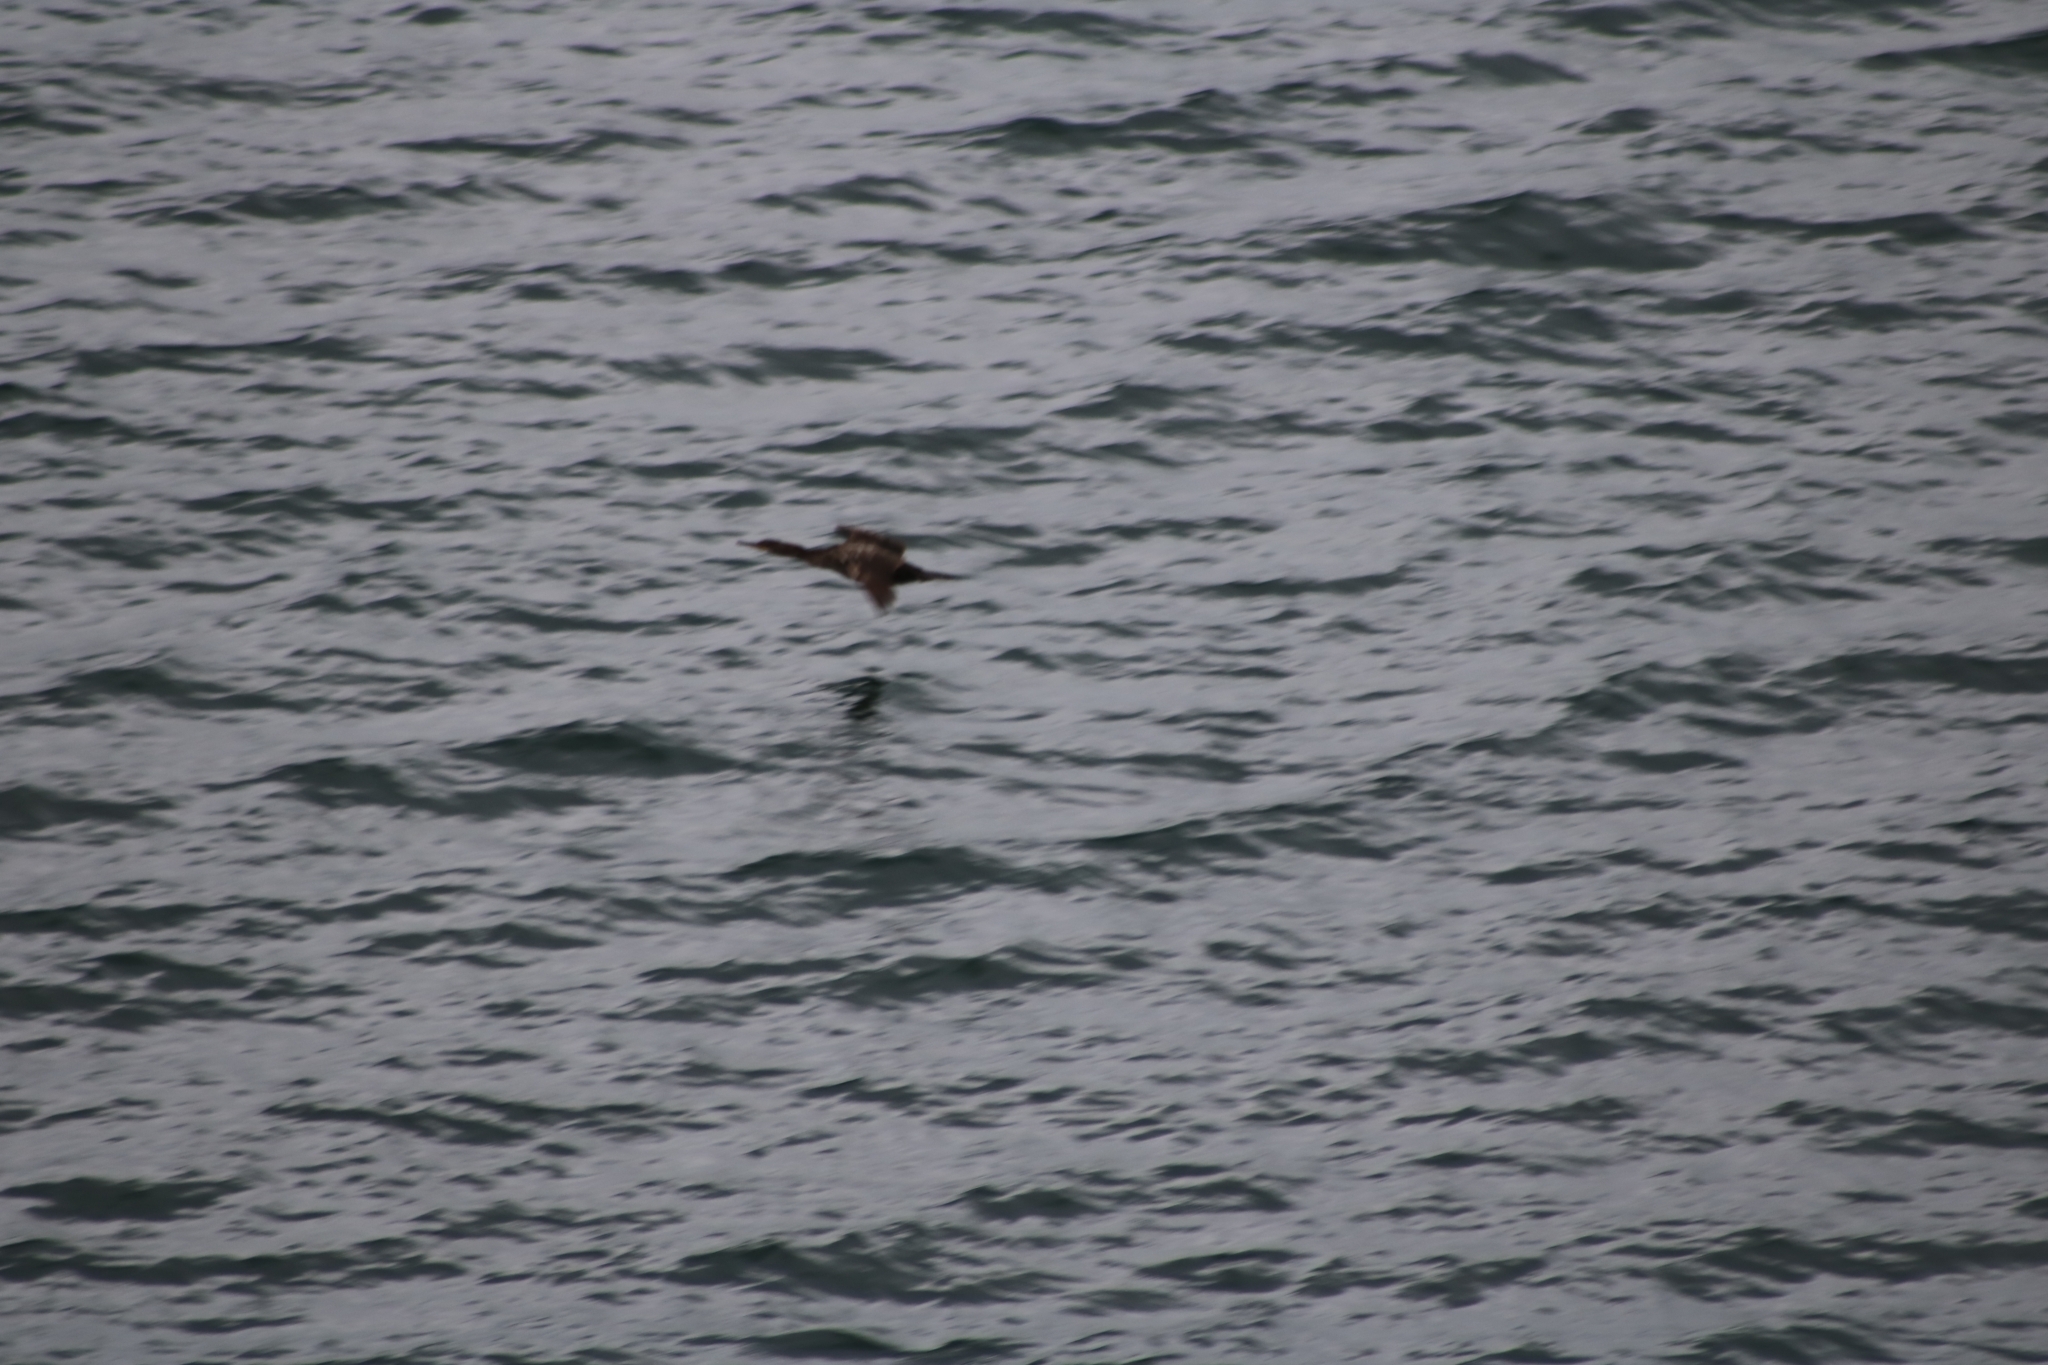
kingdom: Animalia
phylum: Chordata
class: Aves
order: Suliformes
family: Phalacrocoracidae
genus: Phalacrocorax
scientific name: Phalacrocorax aristotelis
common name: European shag
